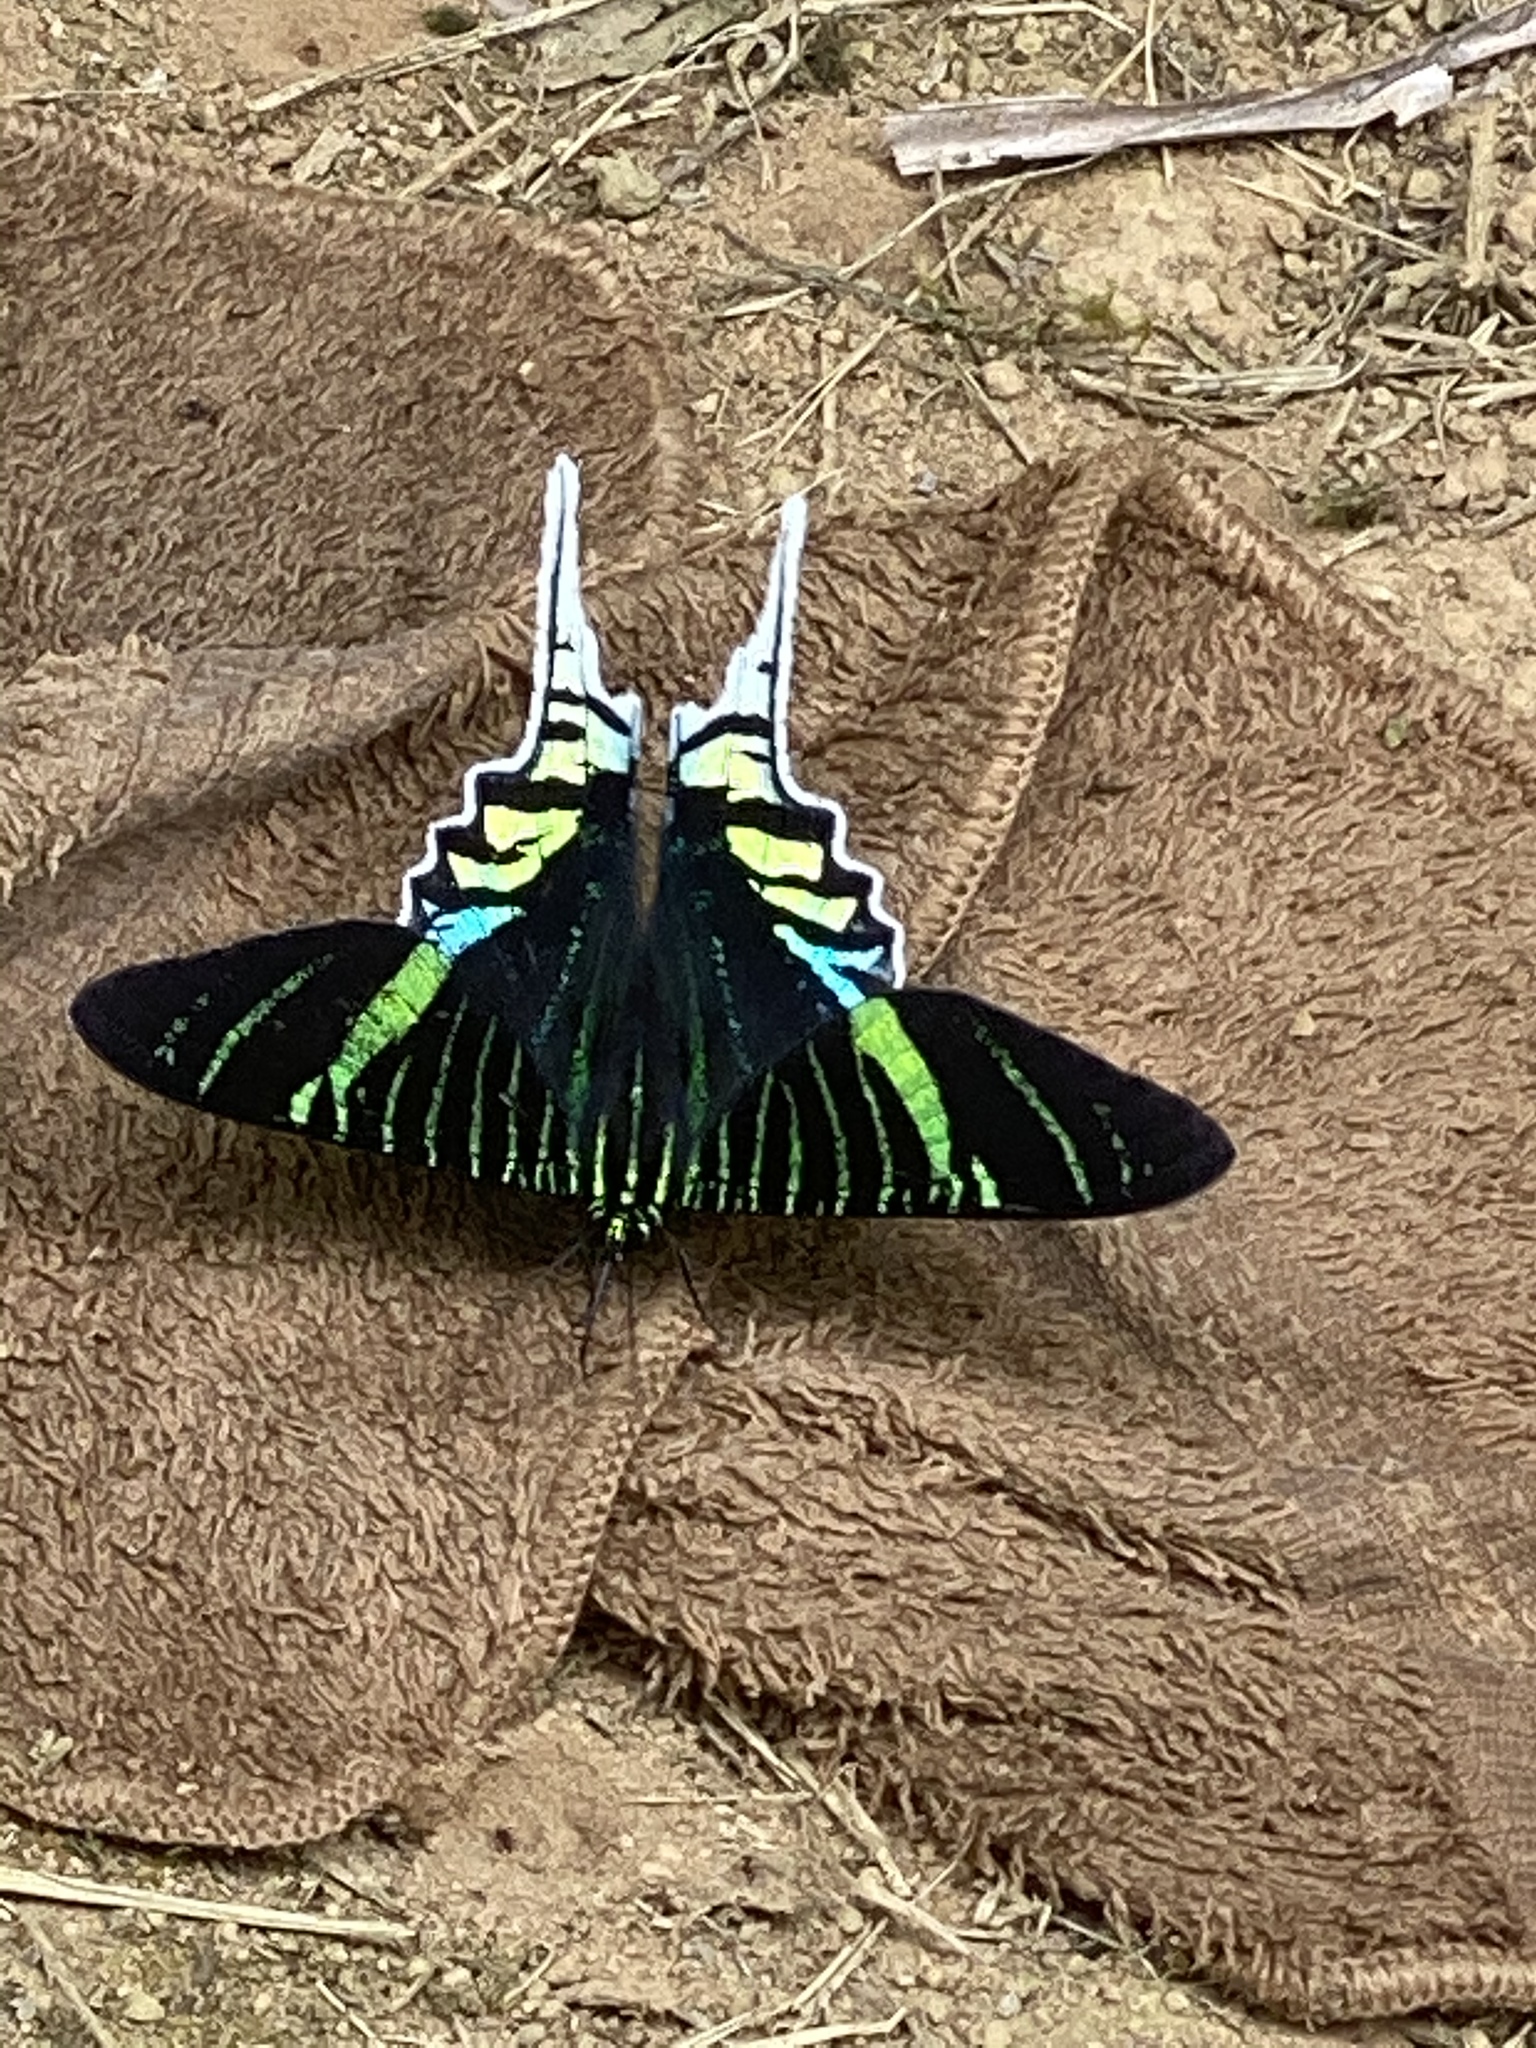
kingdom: Animalia
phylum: Arthropoda
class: Insecta
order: Lepidoptera
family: Uraniidae
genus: Urania
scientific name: Urania leilus
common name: Peacock moth
